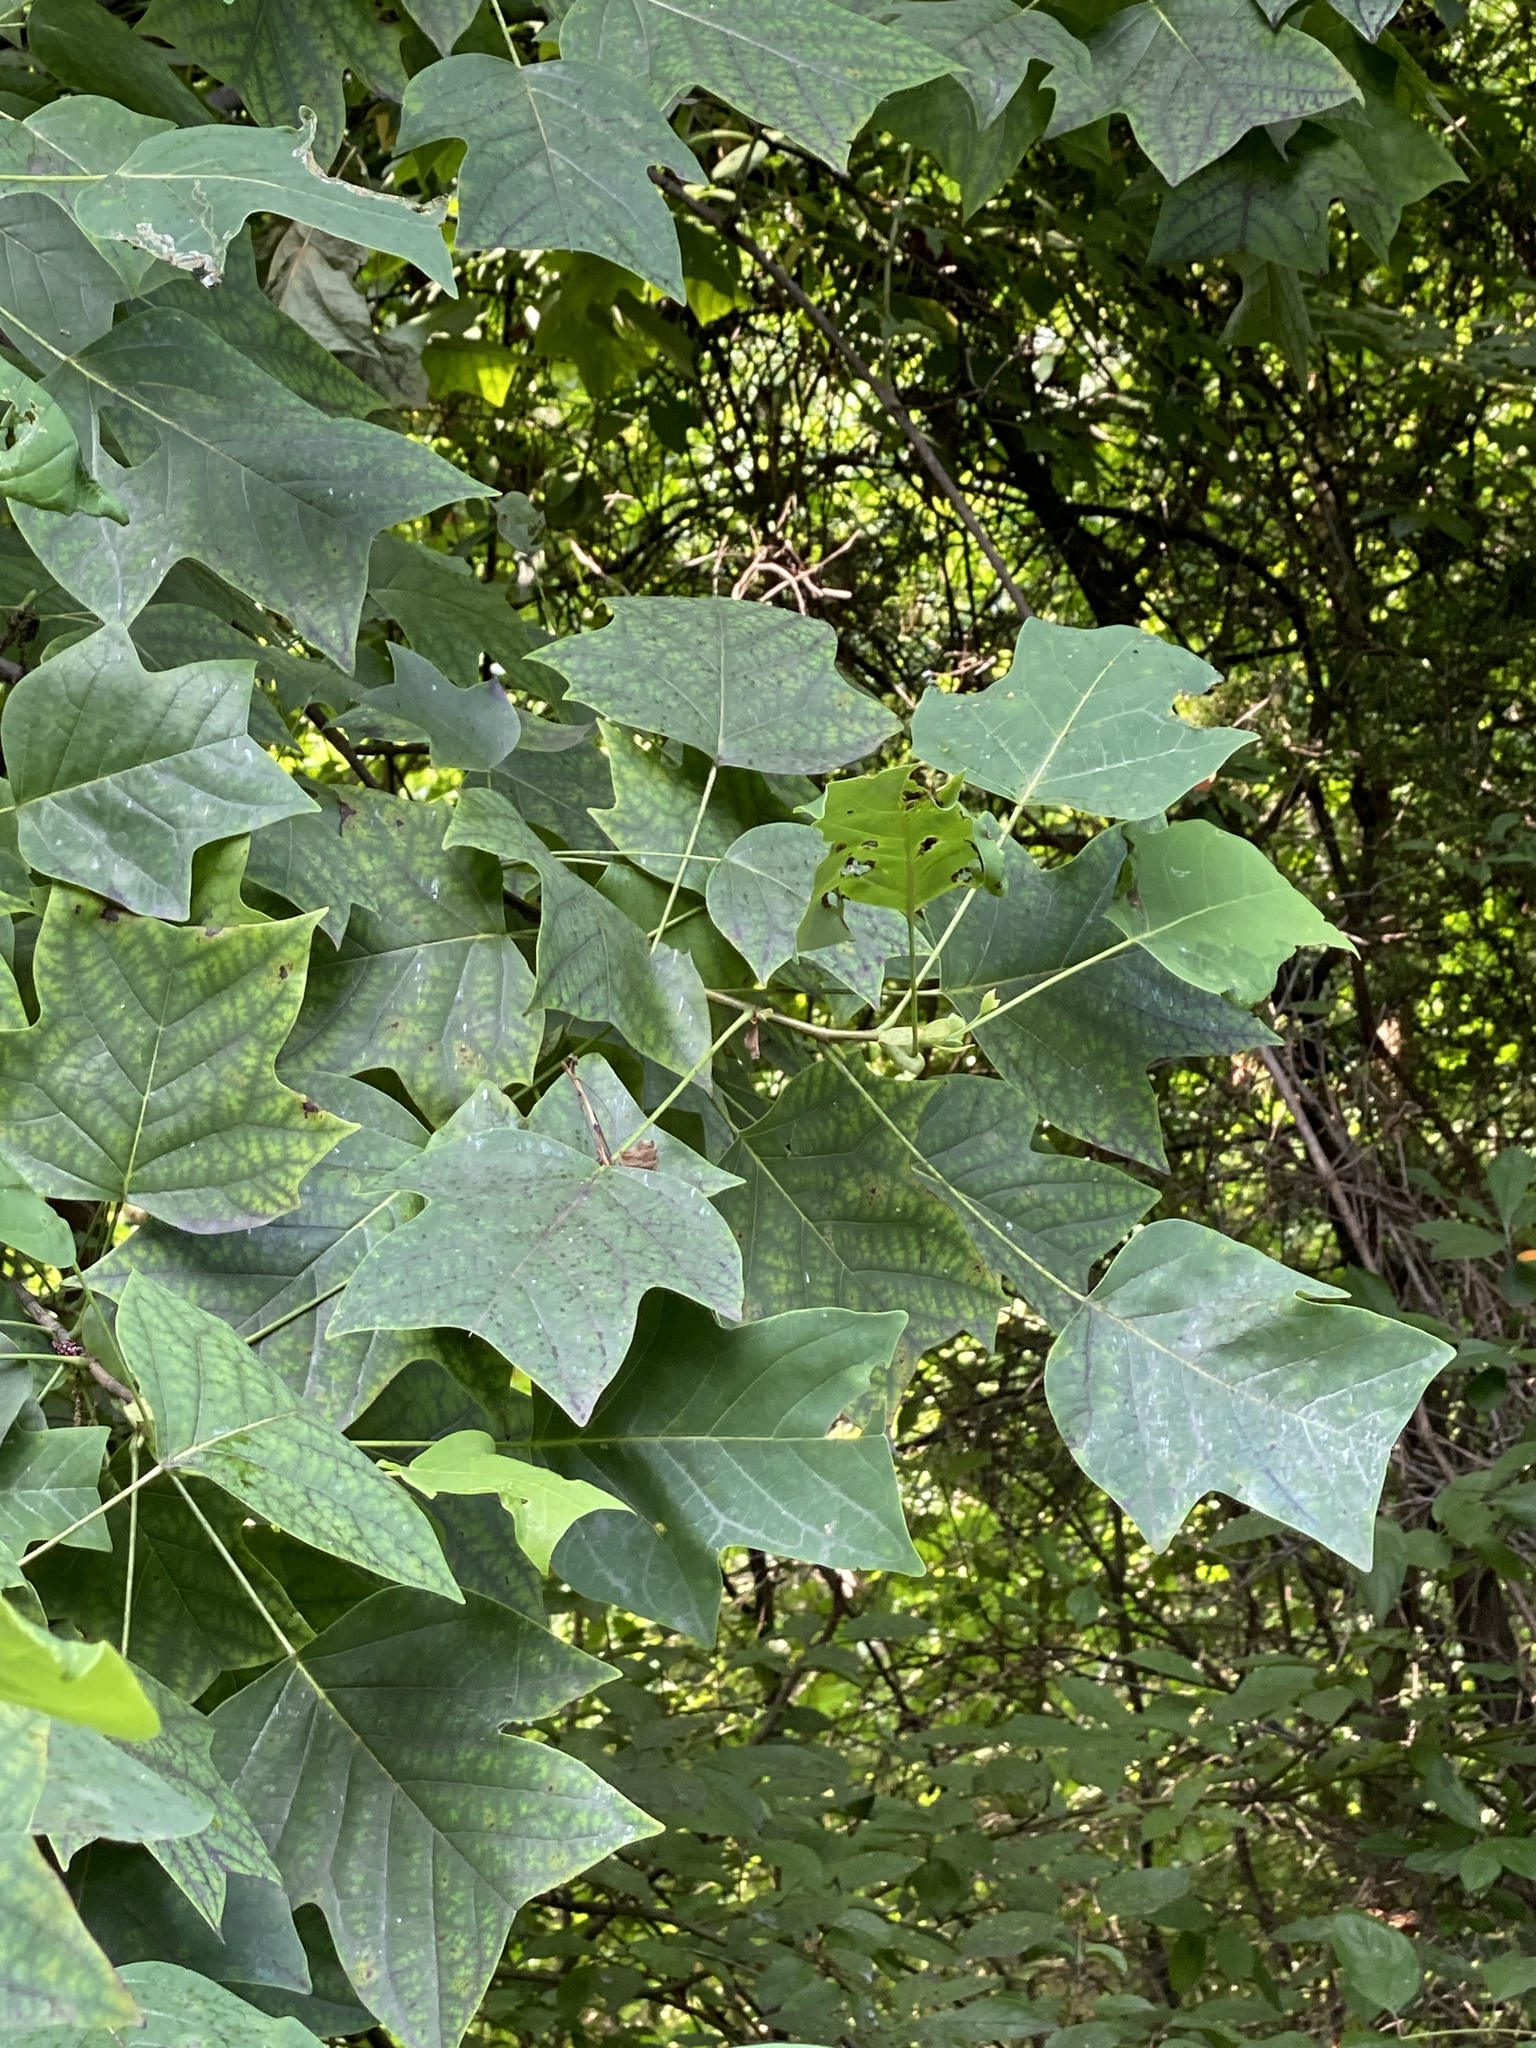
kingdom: Plantae
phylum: Tracheophyta
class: Magnoliopsida
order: Magnoliales
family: Magnoliaceae
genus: Liriodendron
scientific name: Liriodendron tulipifera
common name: Tulip tree
